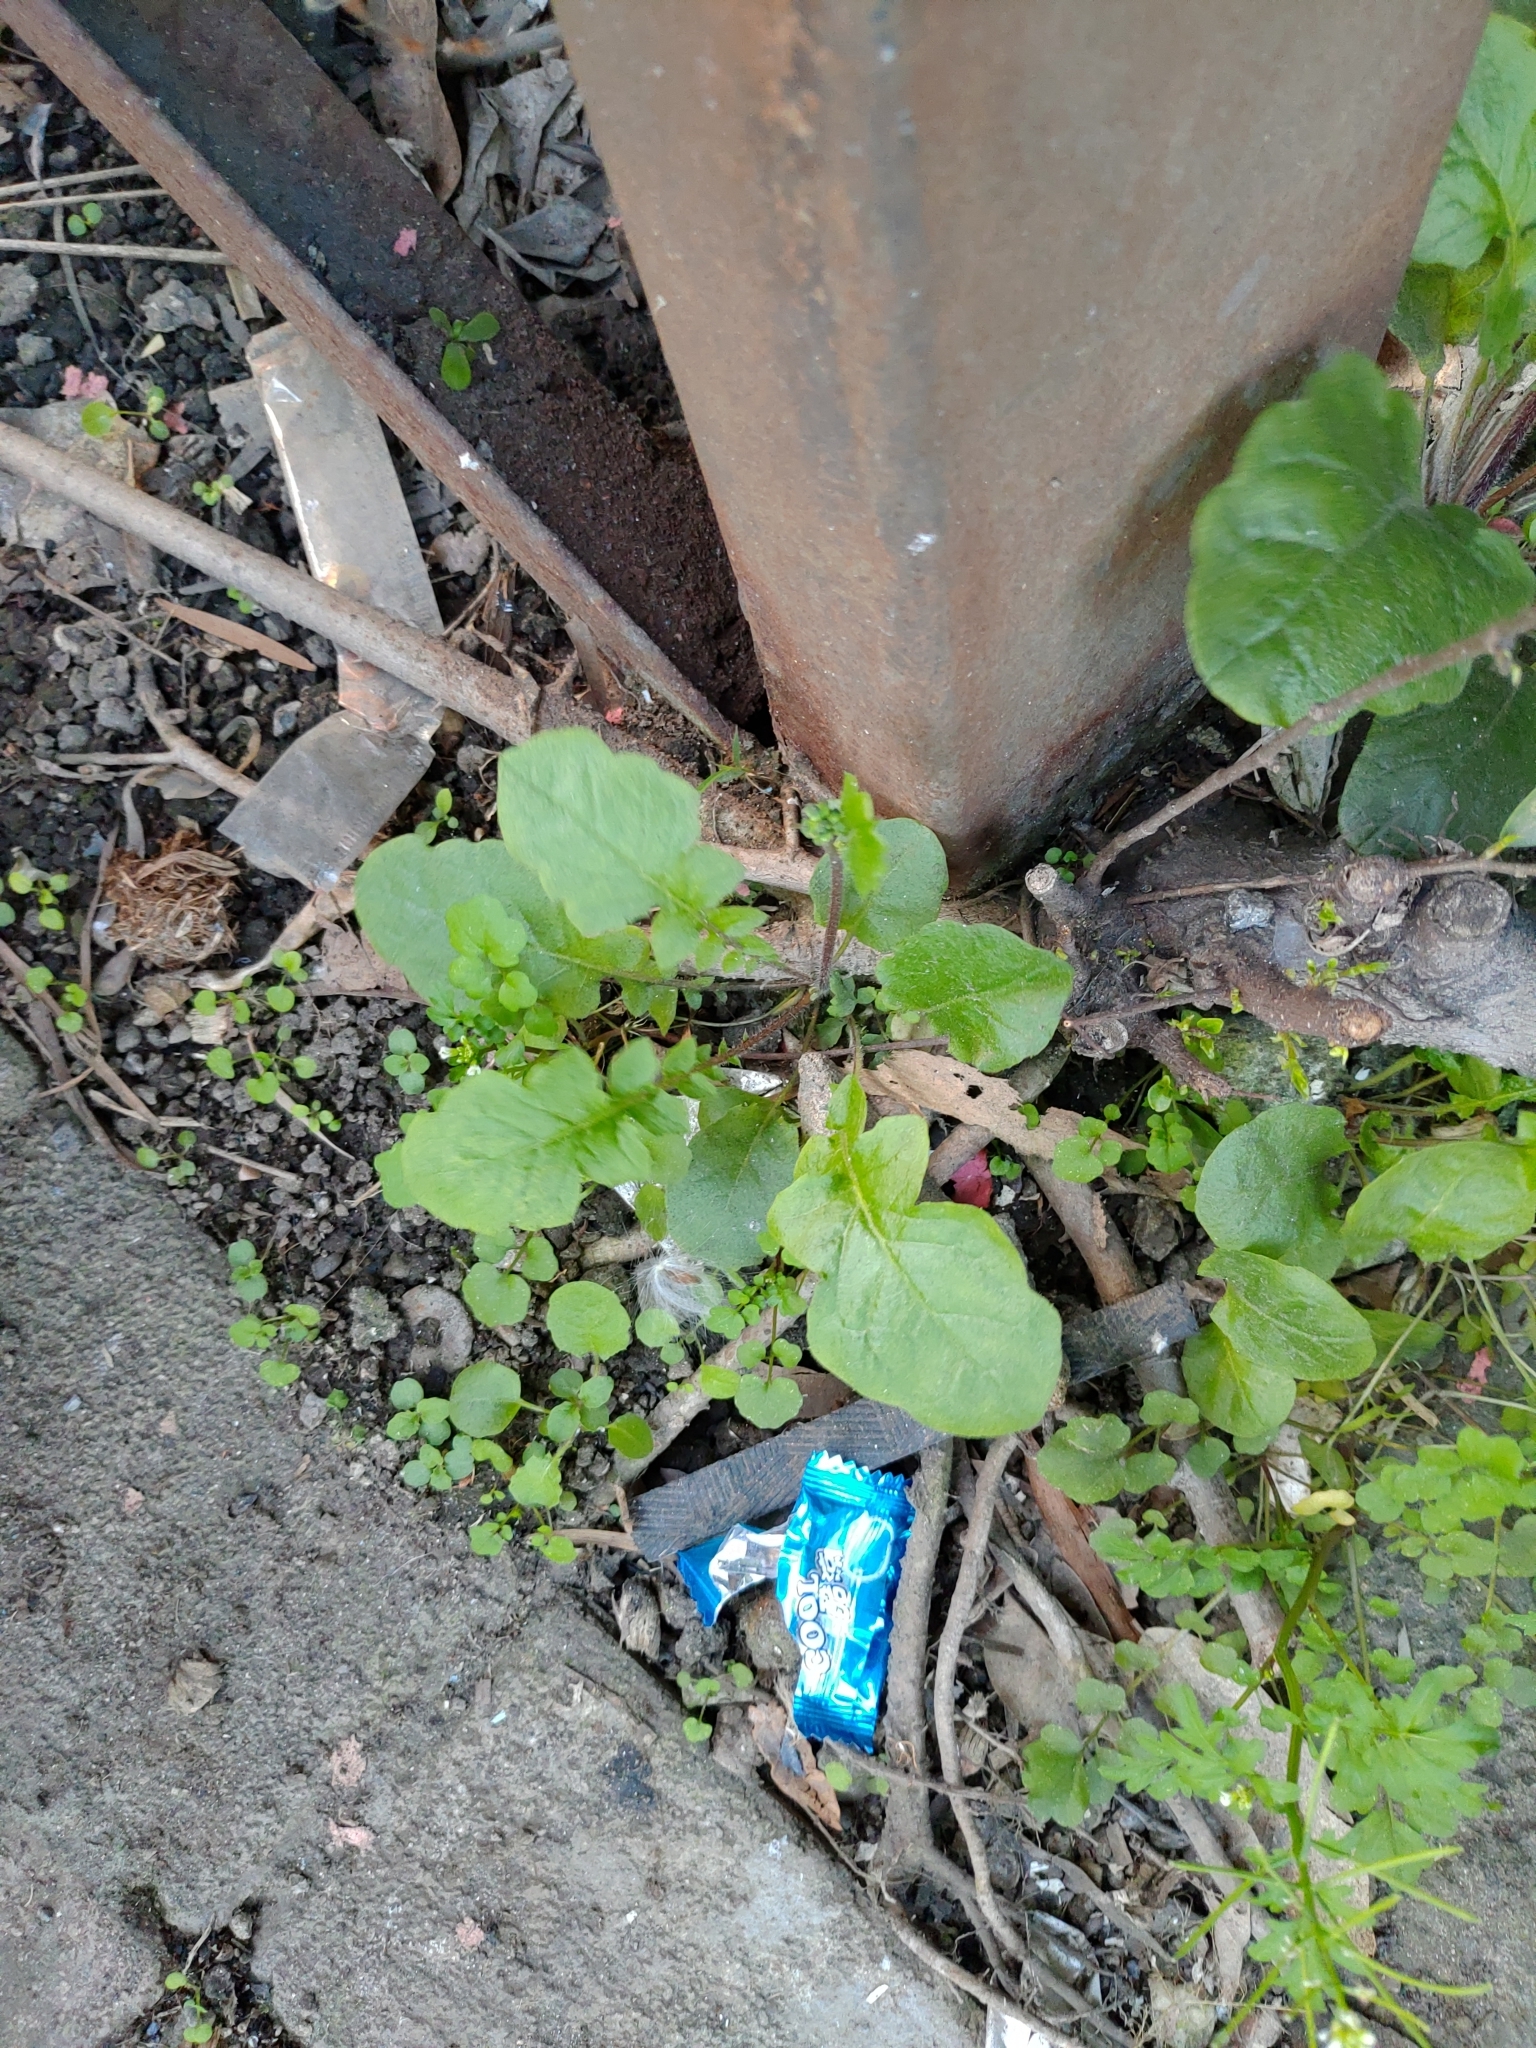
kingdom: Plantae
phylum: Tracheophyta
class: Magnoliopsida
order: Asterales
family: Asteraceae
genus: Youngia
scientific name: Youngia japonica
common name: Oriental false hawksbeard
